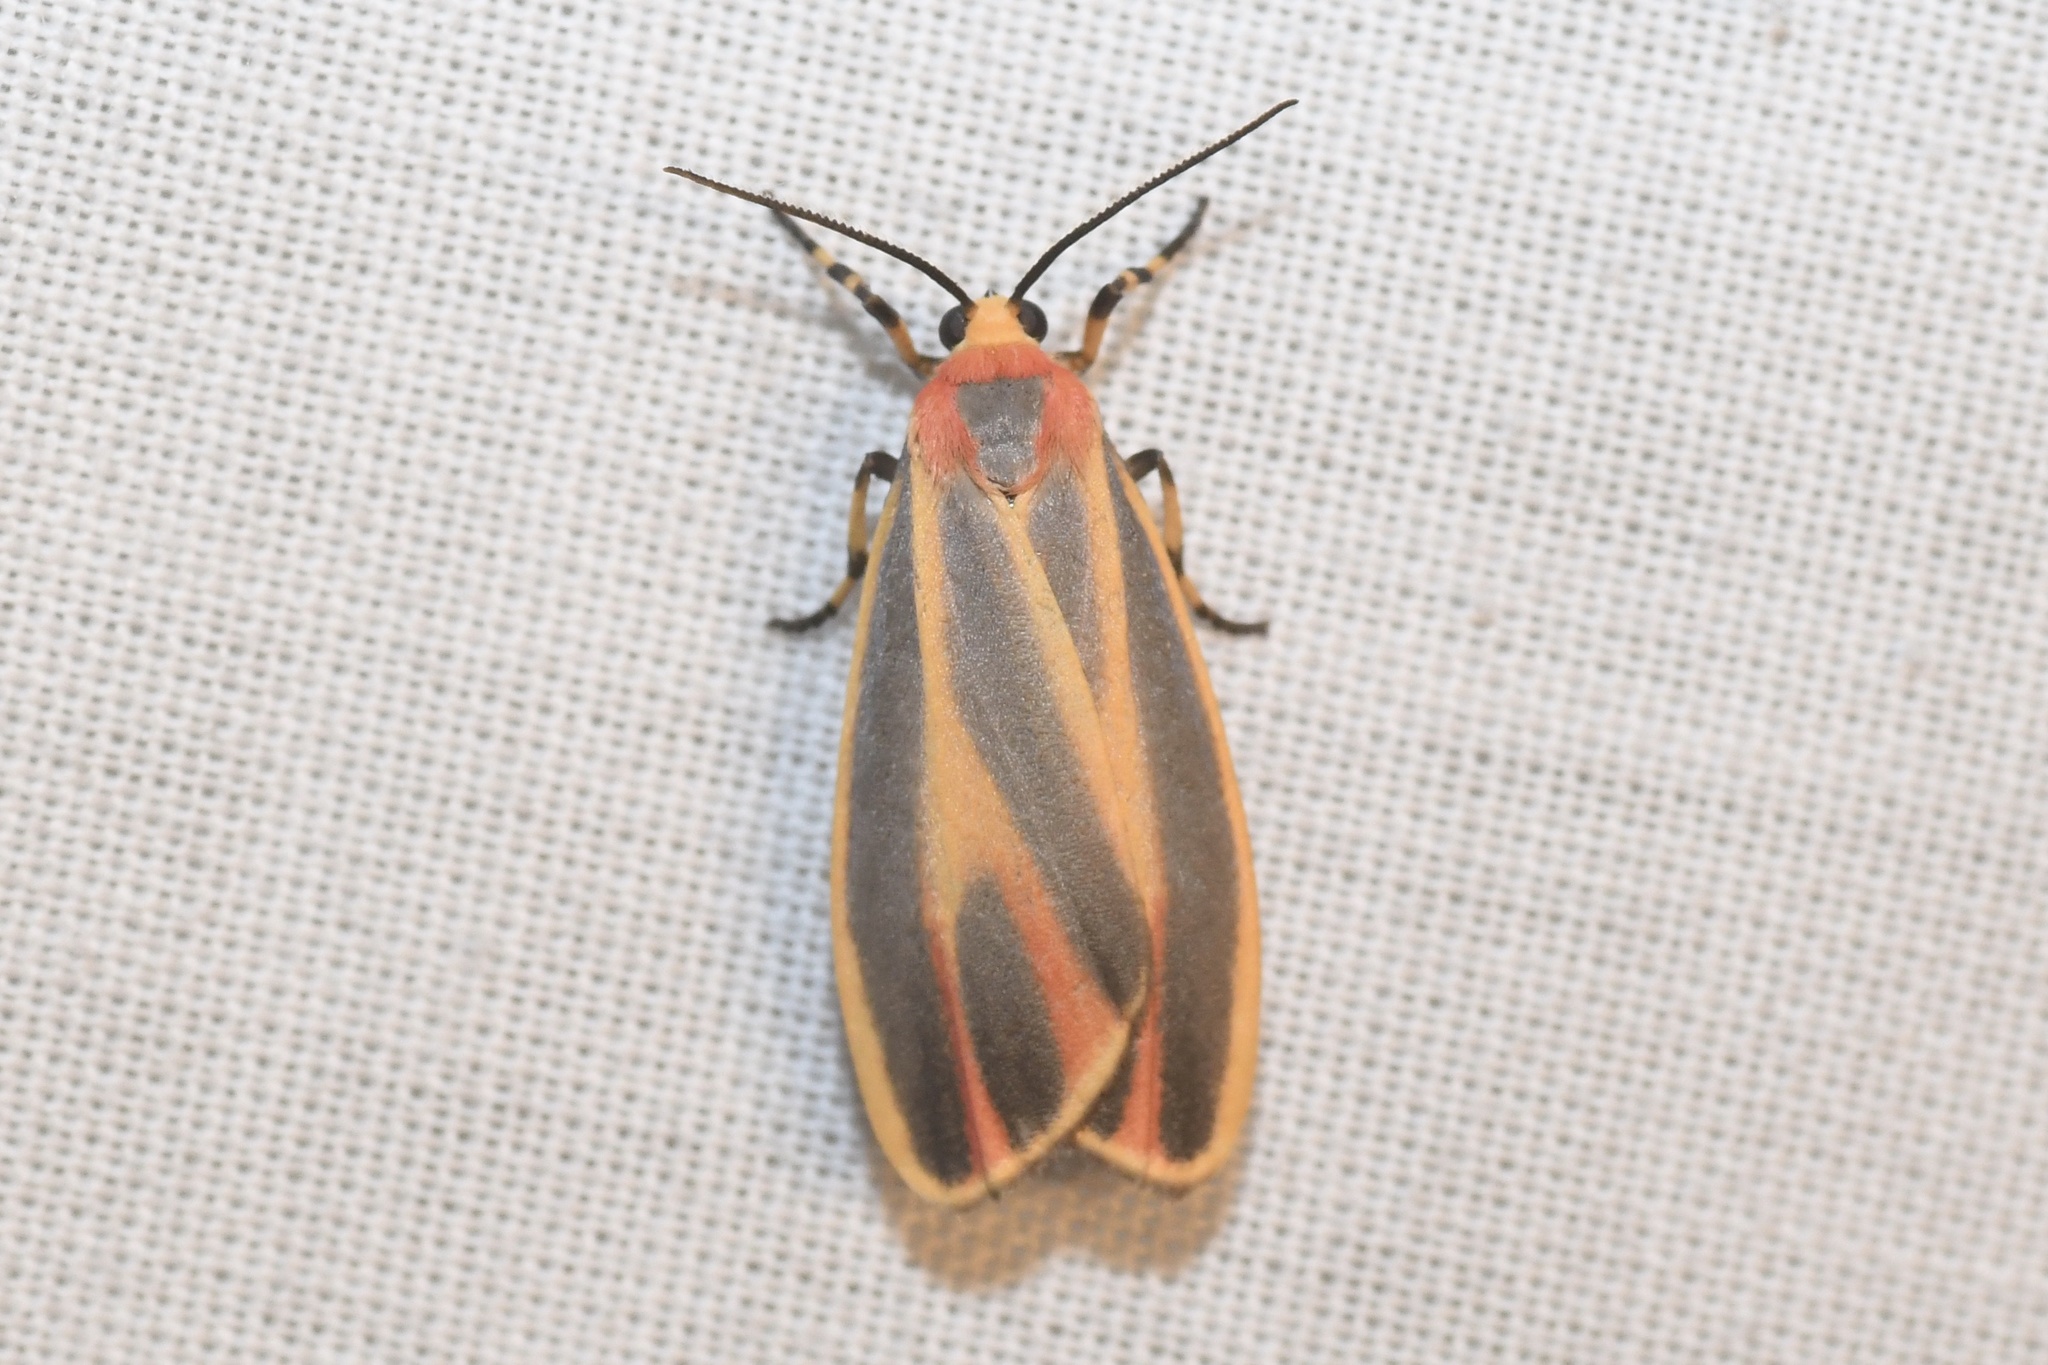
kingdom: Animalia
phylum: Arthropoda
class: Insecta
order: Lepidoptera
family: Erebidae
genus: Hypoprepia
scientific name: Hypoprepia fucosa
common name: Painted lichen moth
